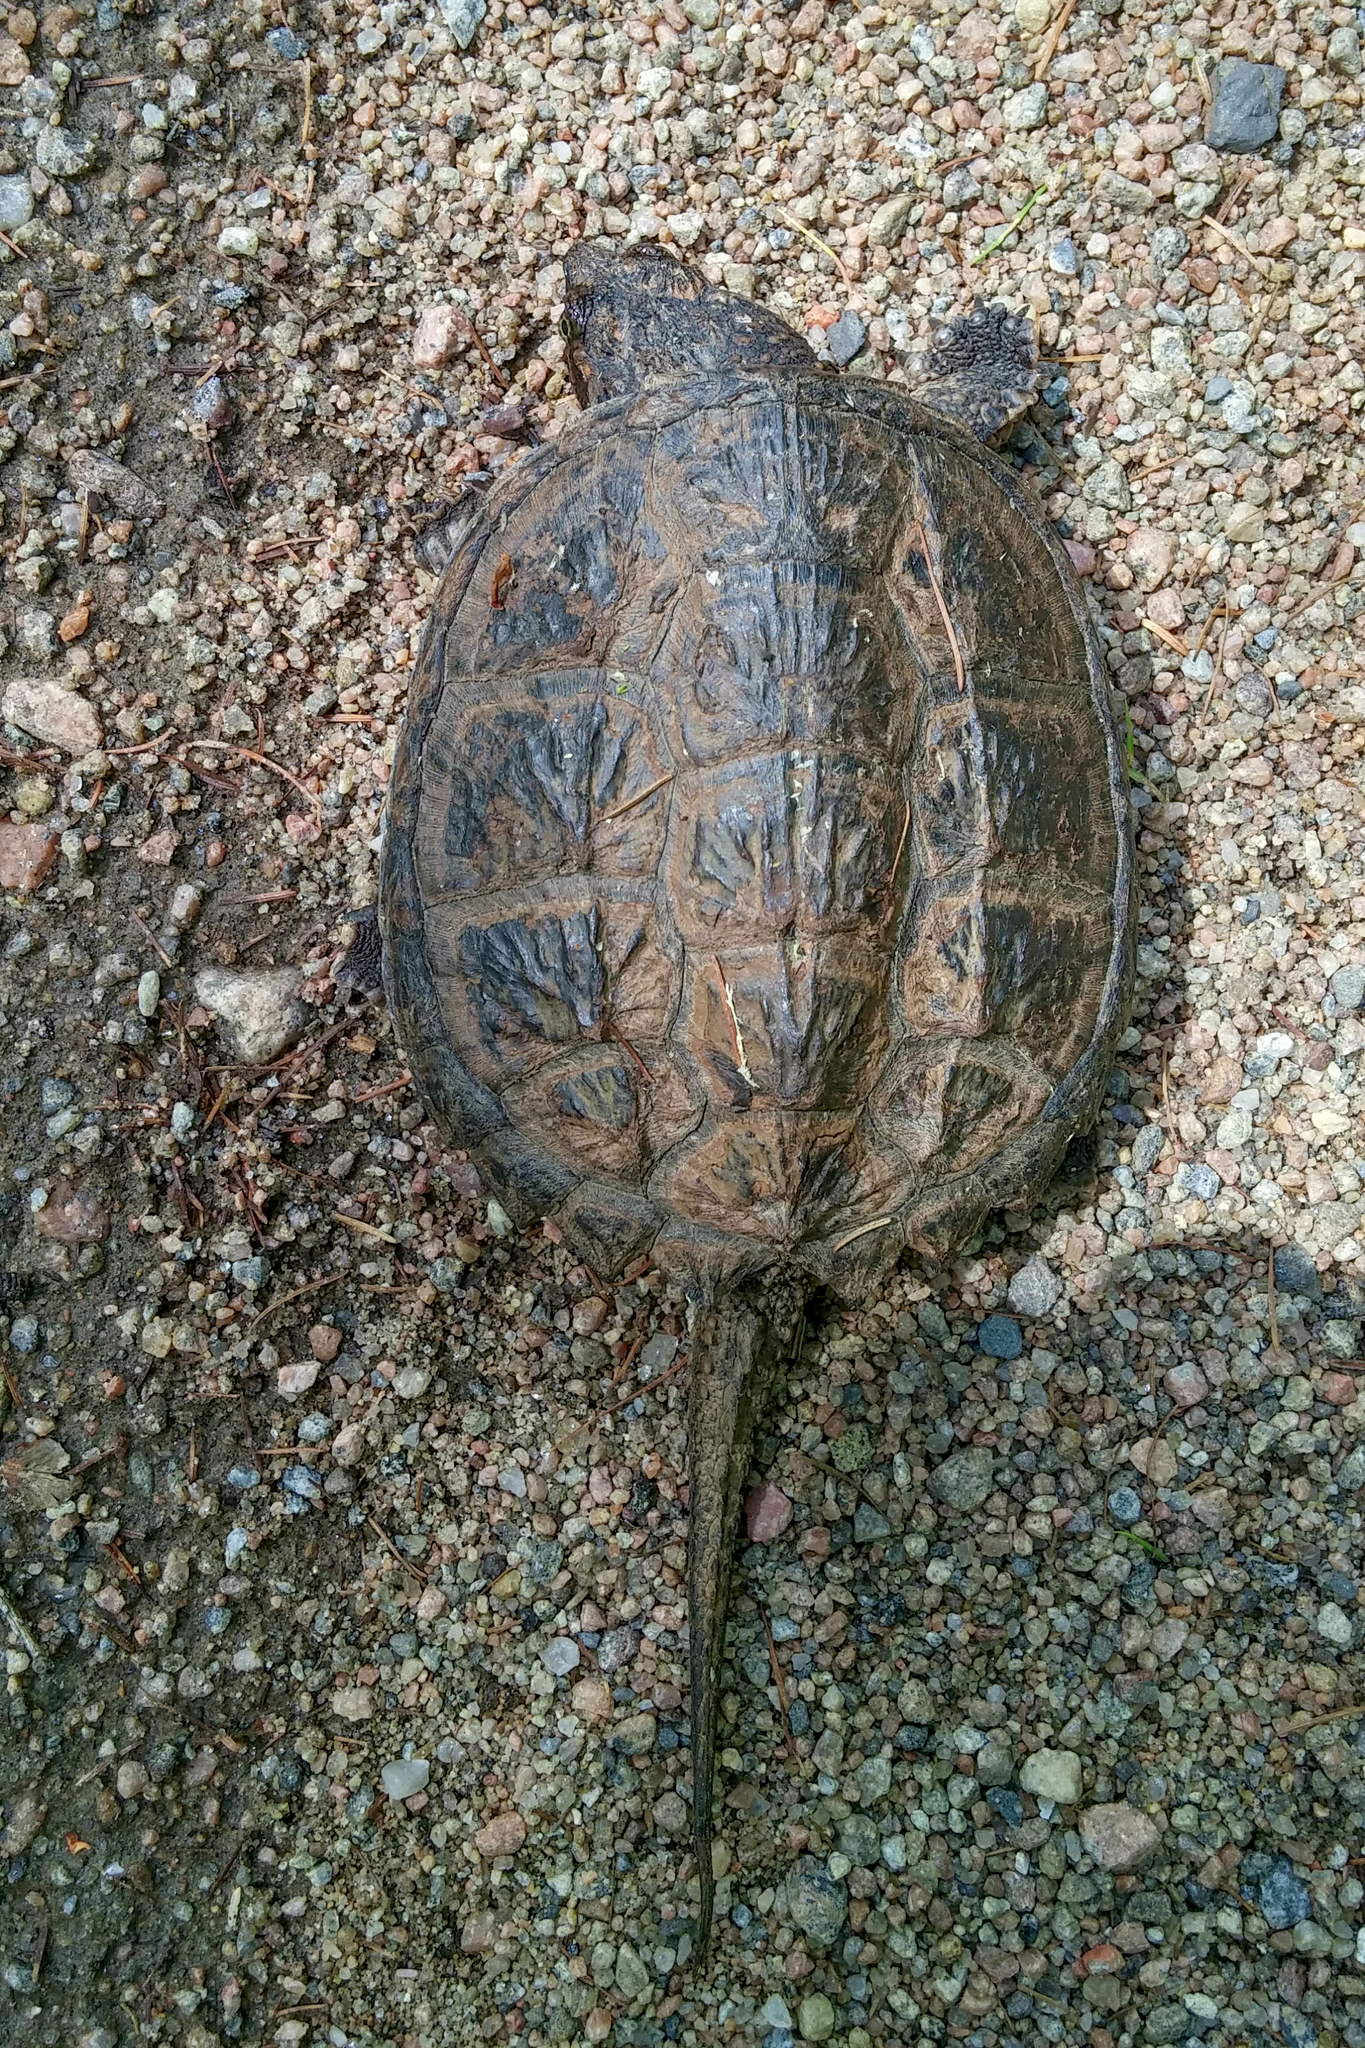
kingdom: Animalia
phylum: Chordata
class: Testudines
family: Chelydridae
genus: Chelydra
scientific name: Chelydra serpentina
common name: Common snapping turtle
